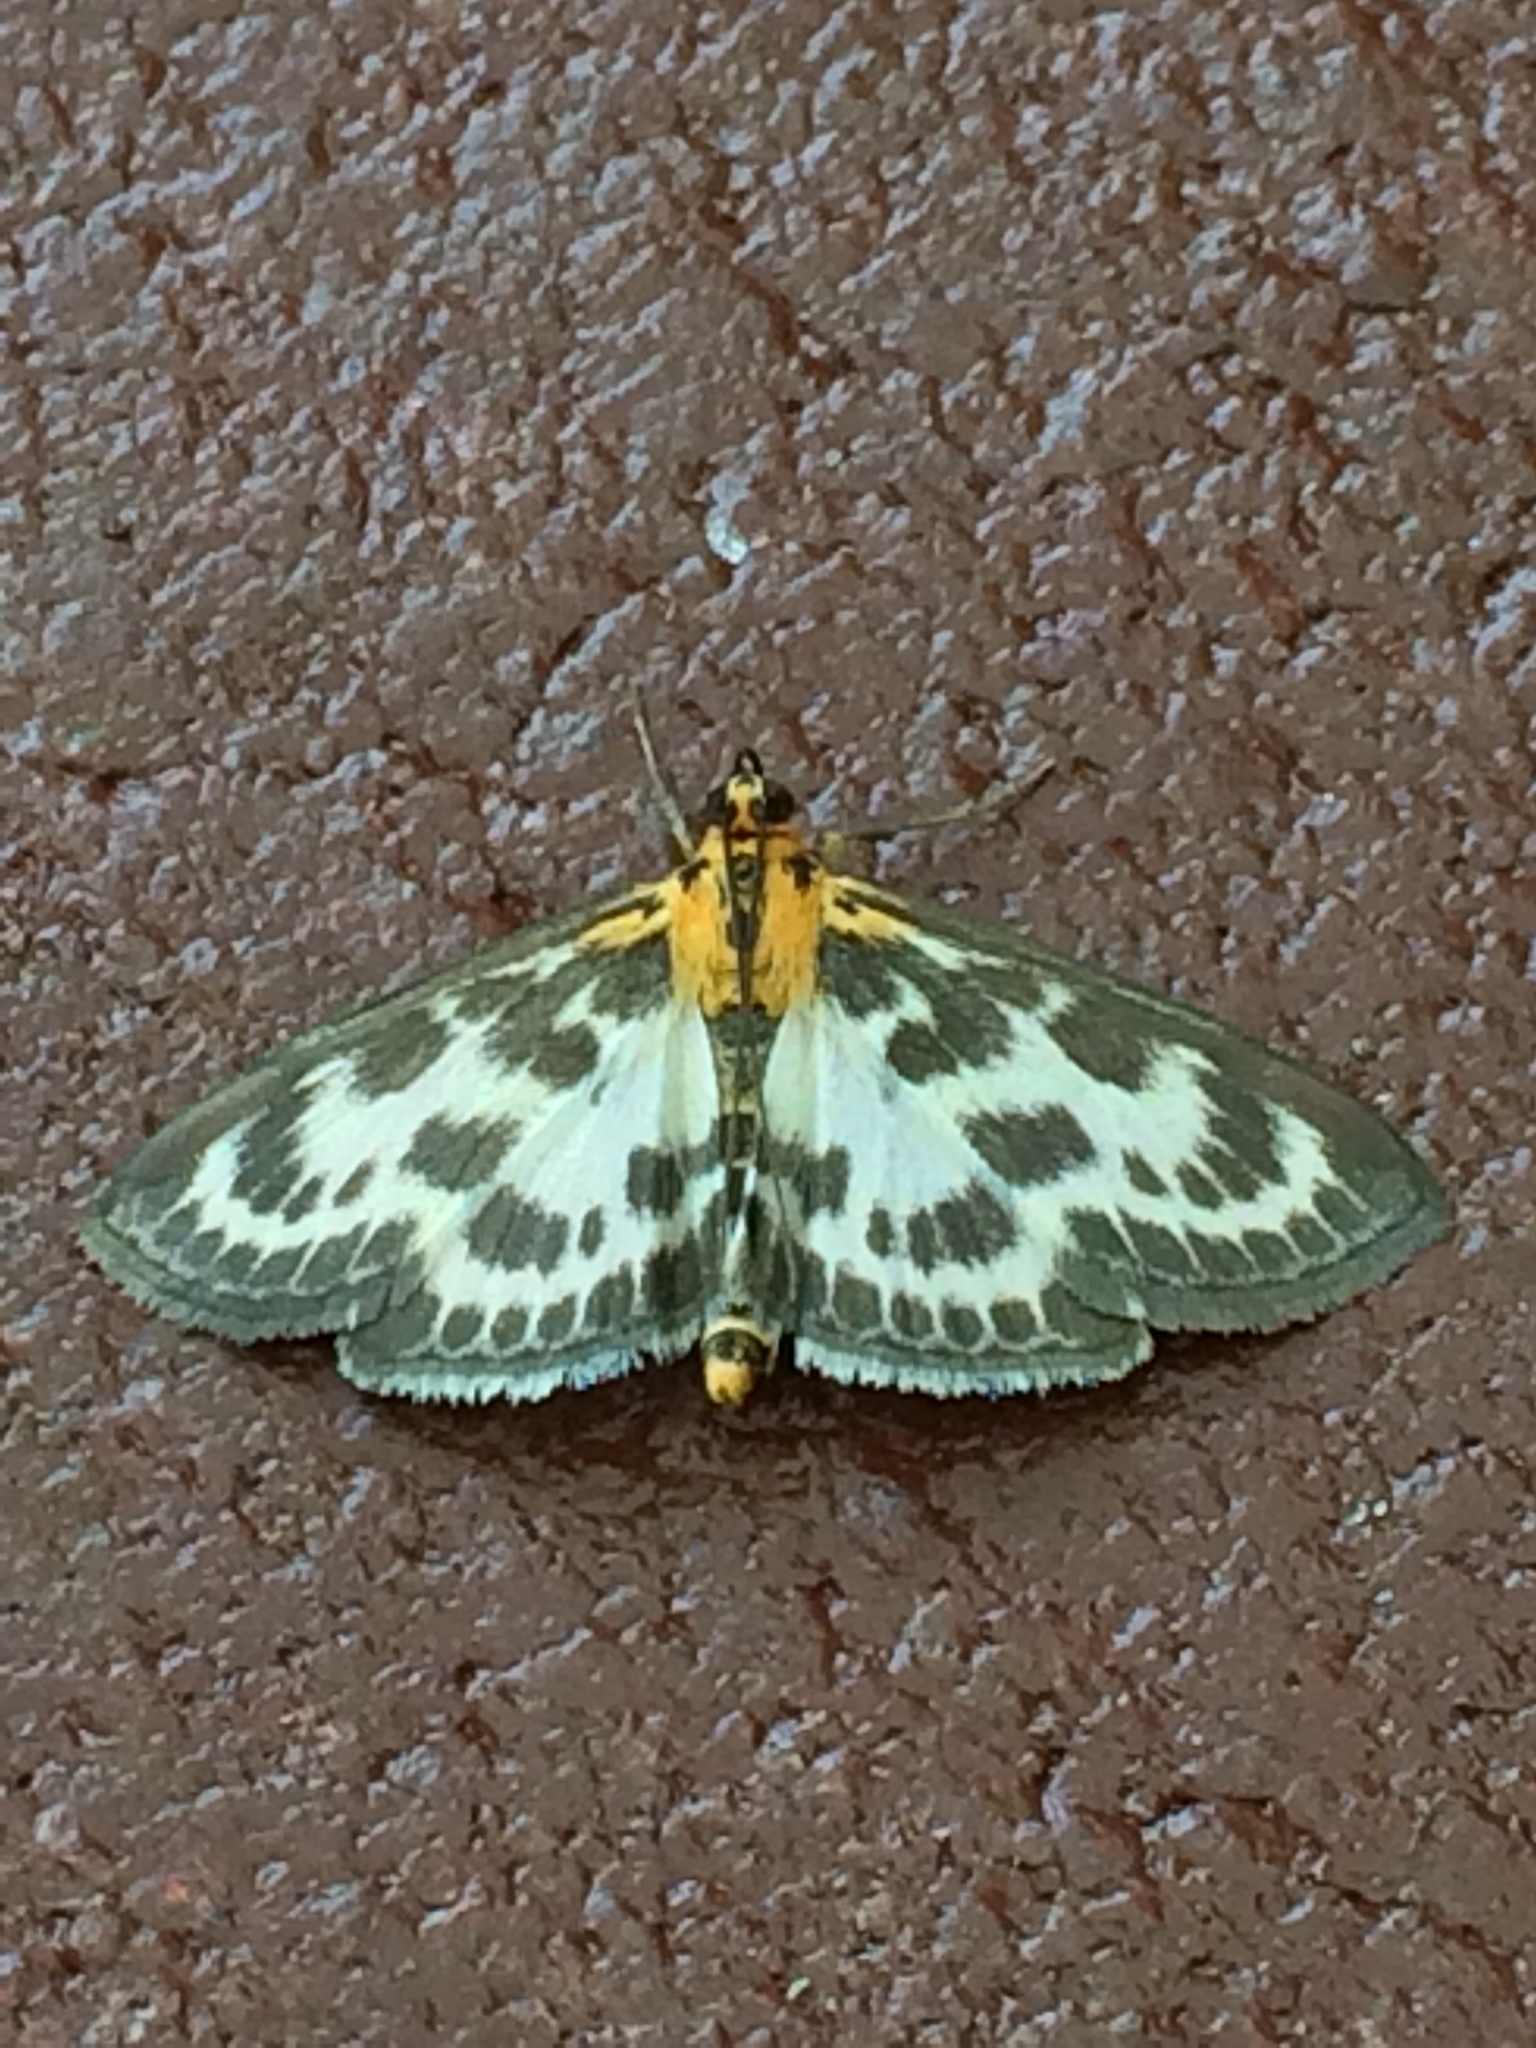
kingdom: Animalia
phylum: Arthropoda
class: Insecta
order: Lepidoptera
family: Crambidae
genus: Anania
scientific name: Anania hortulata
